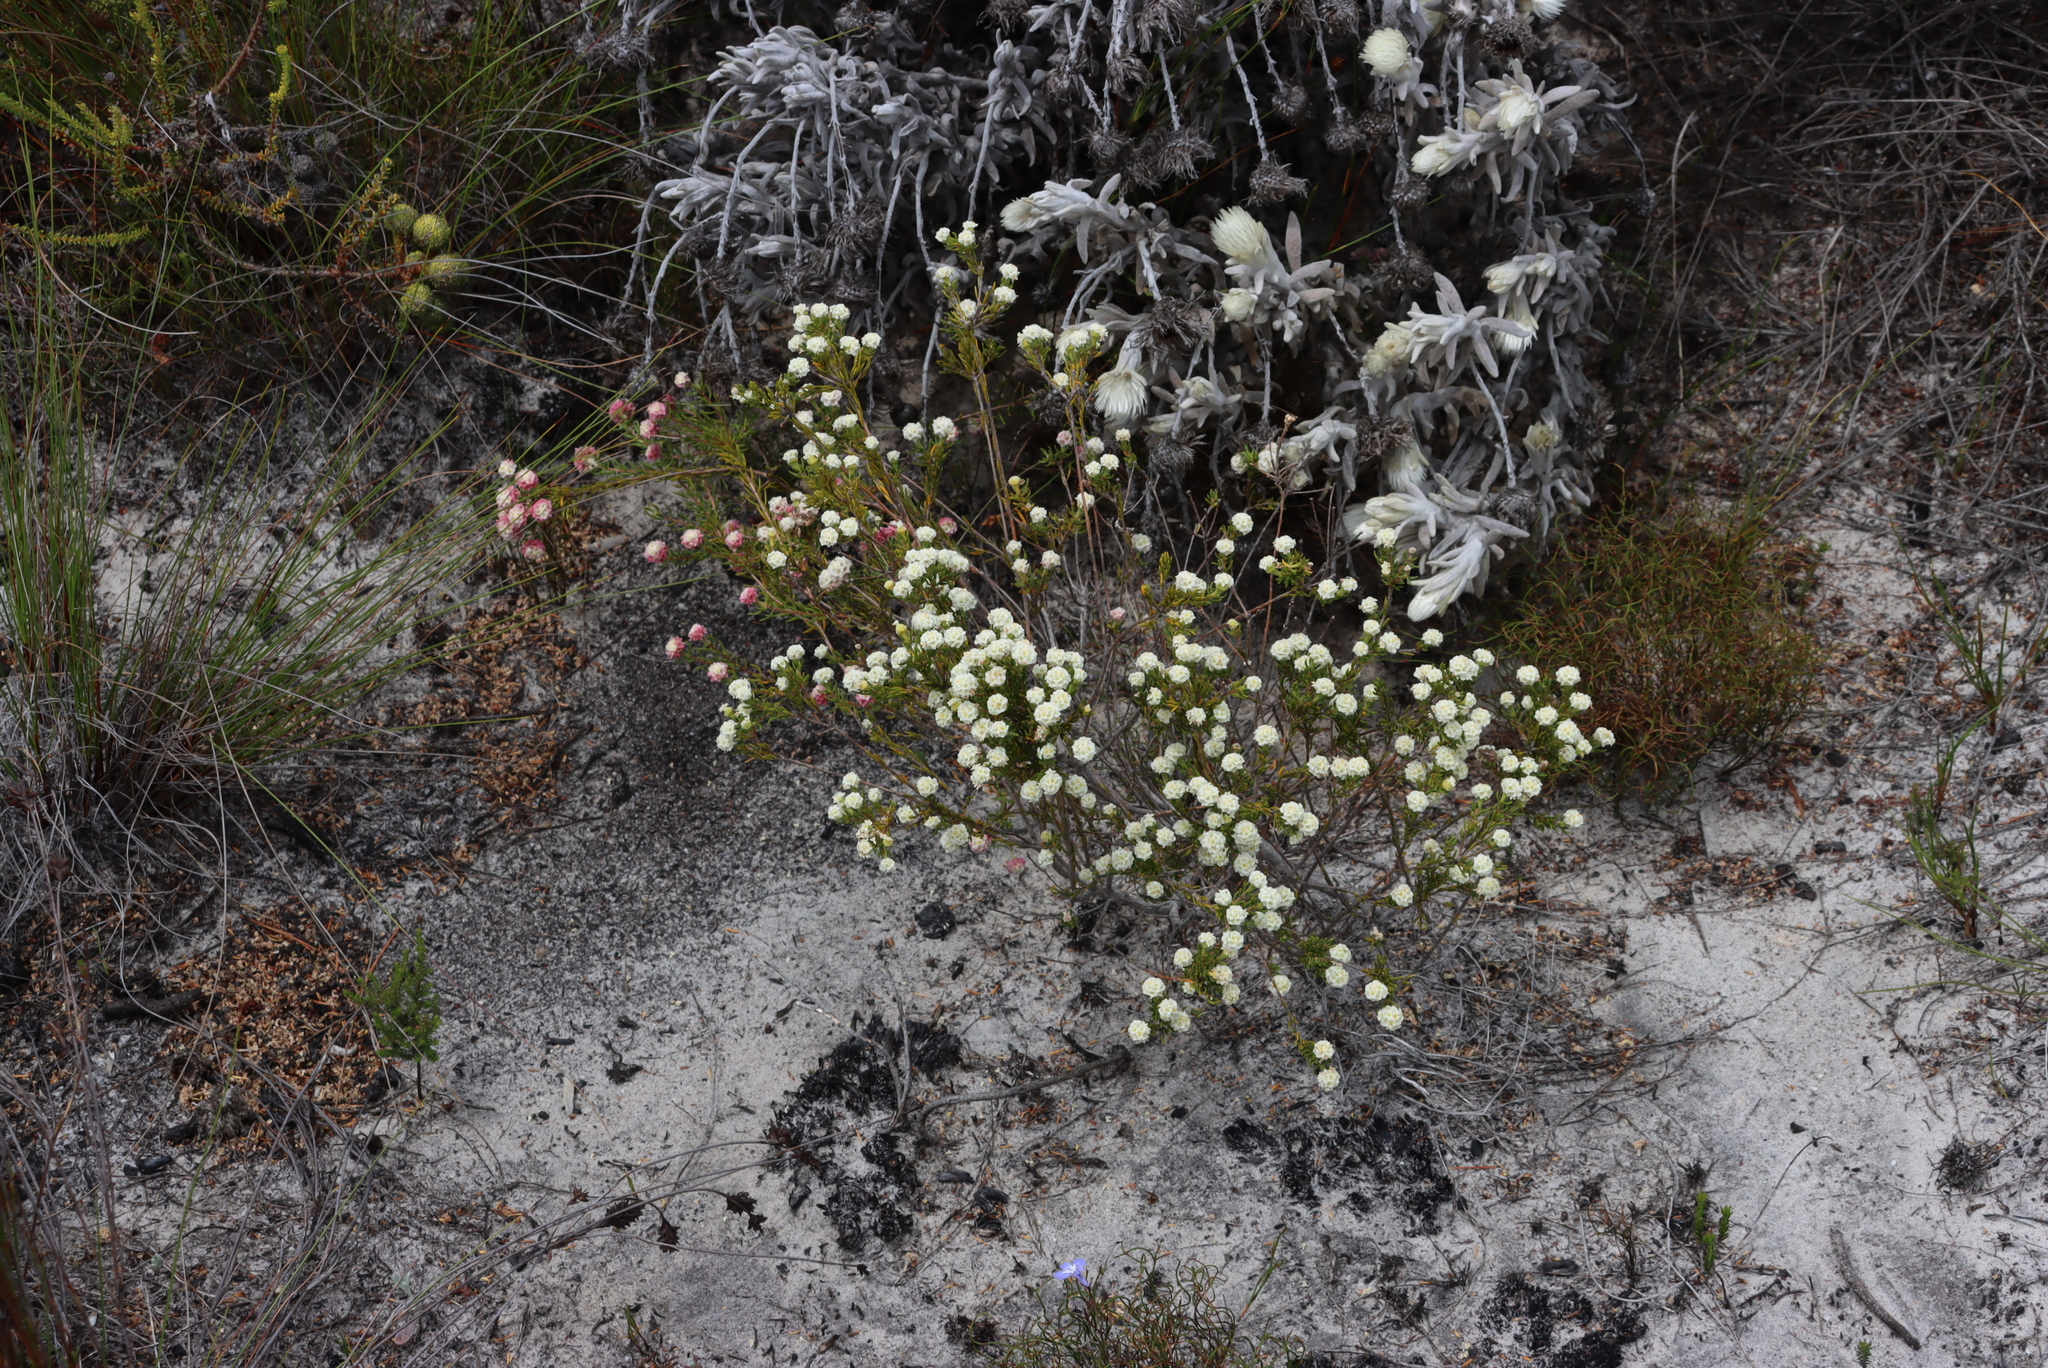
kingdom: Plantae
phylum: Tracheophyta
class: Magnoliopsida
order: Malvales
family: Thymelaeaceae
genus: Lachnaea
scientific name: Lachnaea densiflora
